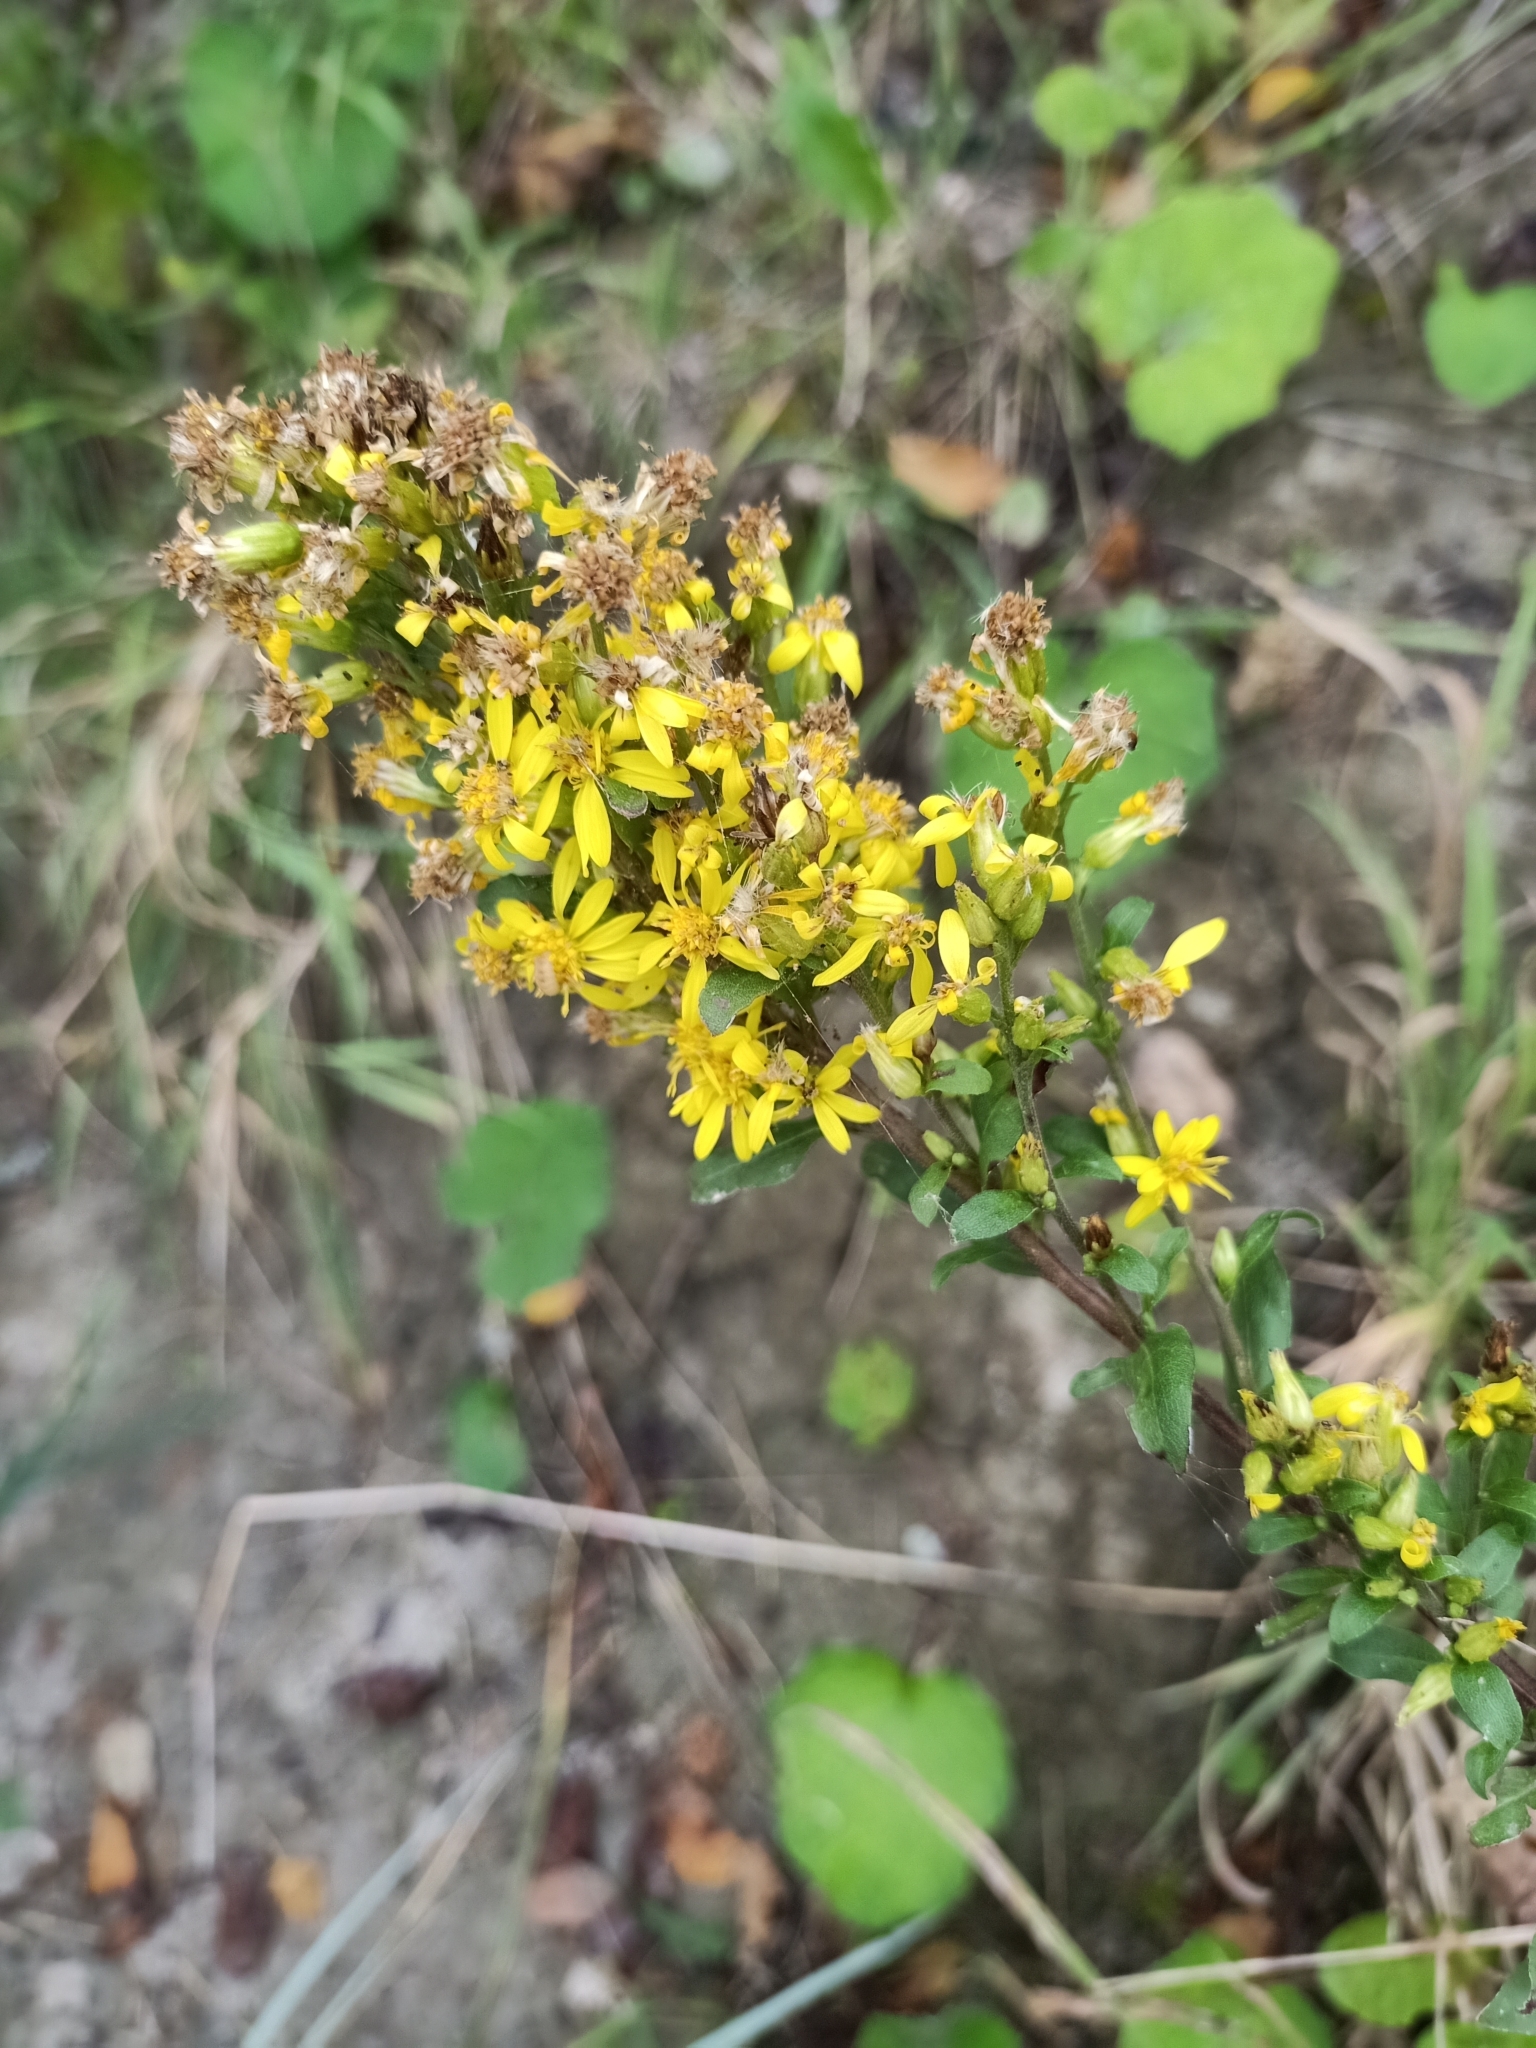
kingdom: Plantae
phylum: Tracheophyta
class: Magnoliopsida
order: Asterales
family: Asteraceae
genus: Solidago
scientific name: Solidago virgaurea
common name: Goldenrod
